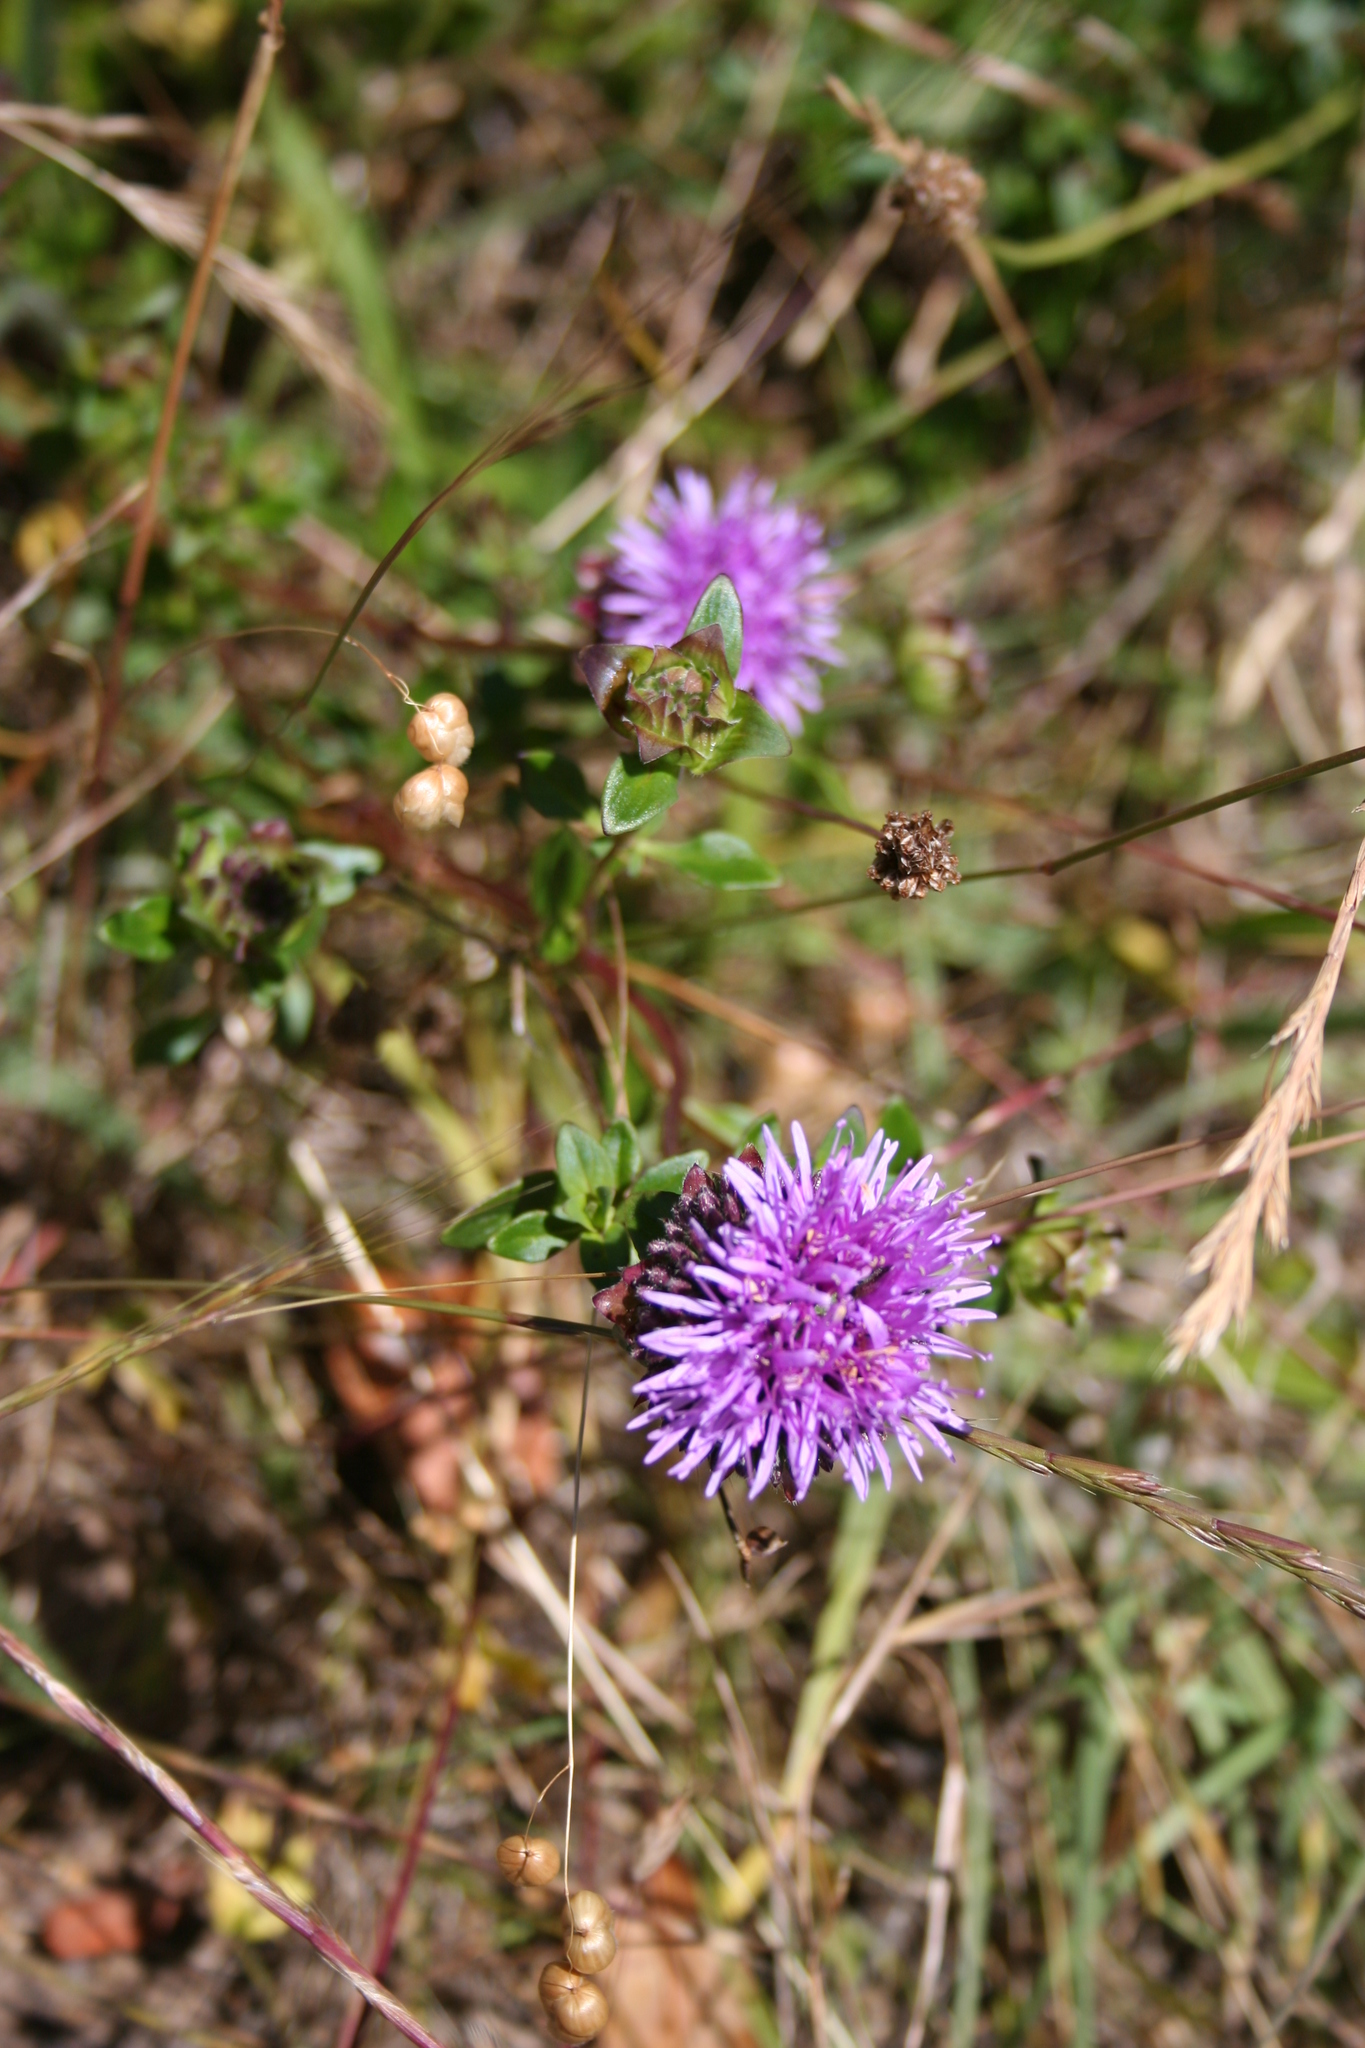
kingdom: Plantae
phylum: Tracheophyta
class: Magnoliopsida
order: Lamiales
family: Lamiaceae
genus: Monardella
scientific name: Monardella odoratissima
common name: Pacific monardella
